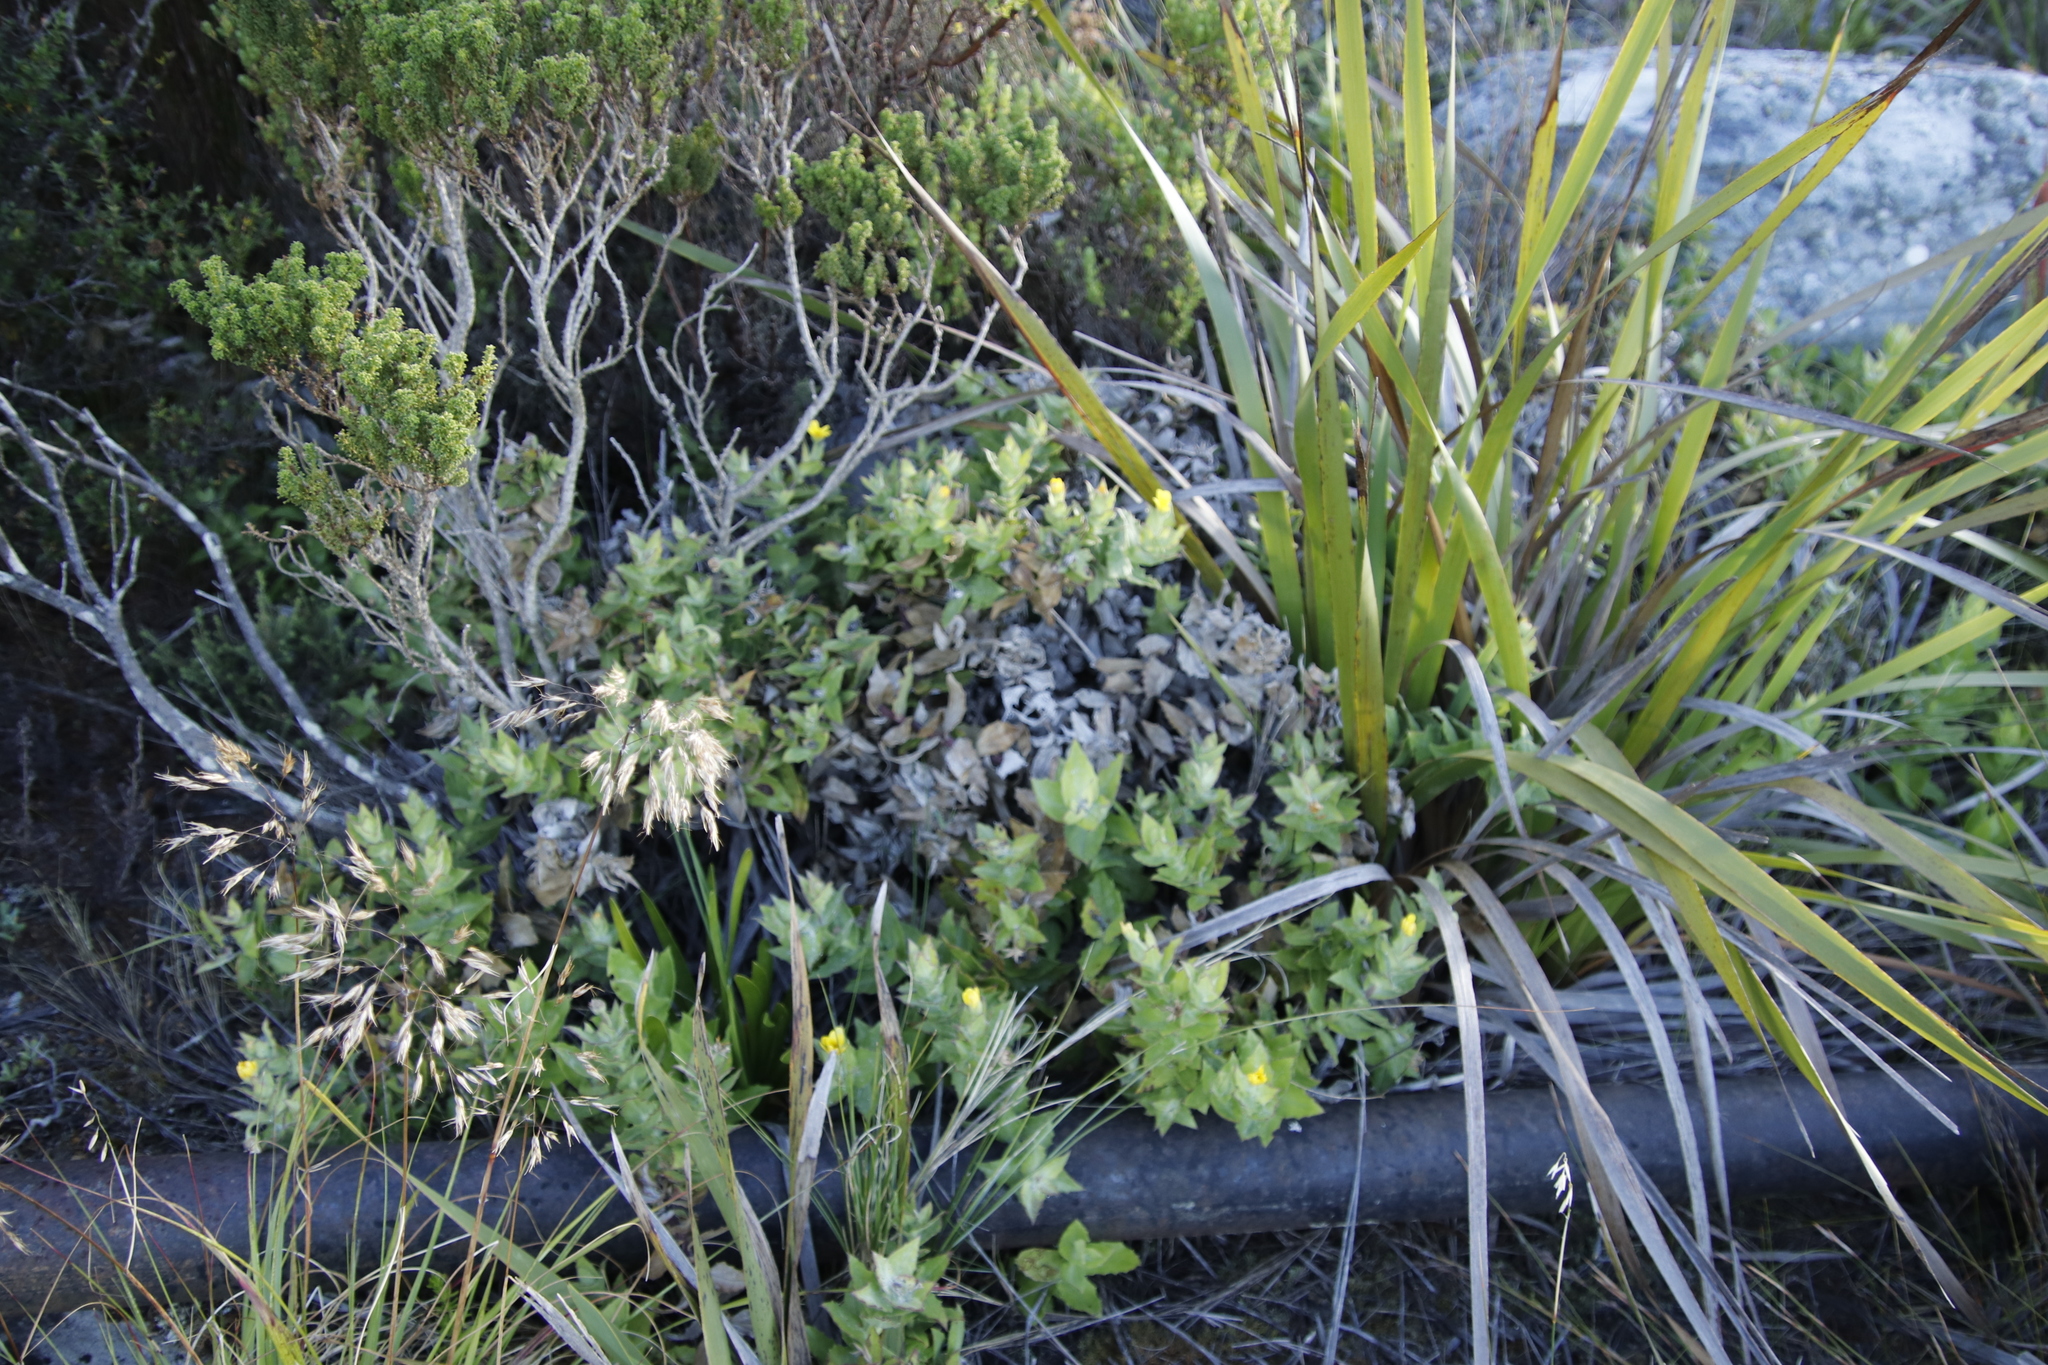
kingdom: Plantae
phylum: Tracheophyta
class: Magnoliopsida
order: Asterales
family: Asteraceae
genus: Osteospermum
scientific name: Osteospermum ilicifolium
